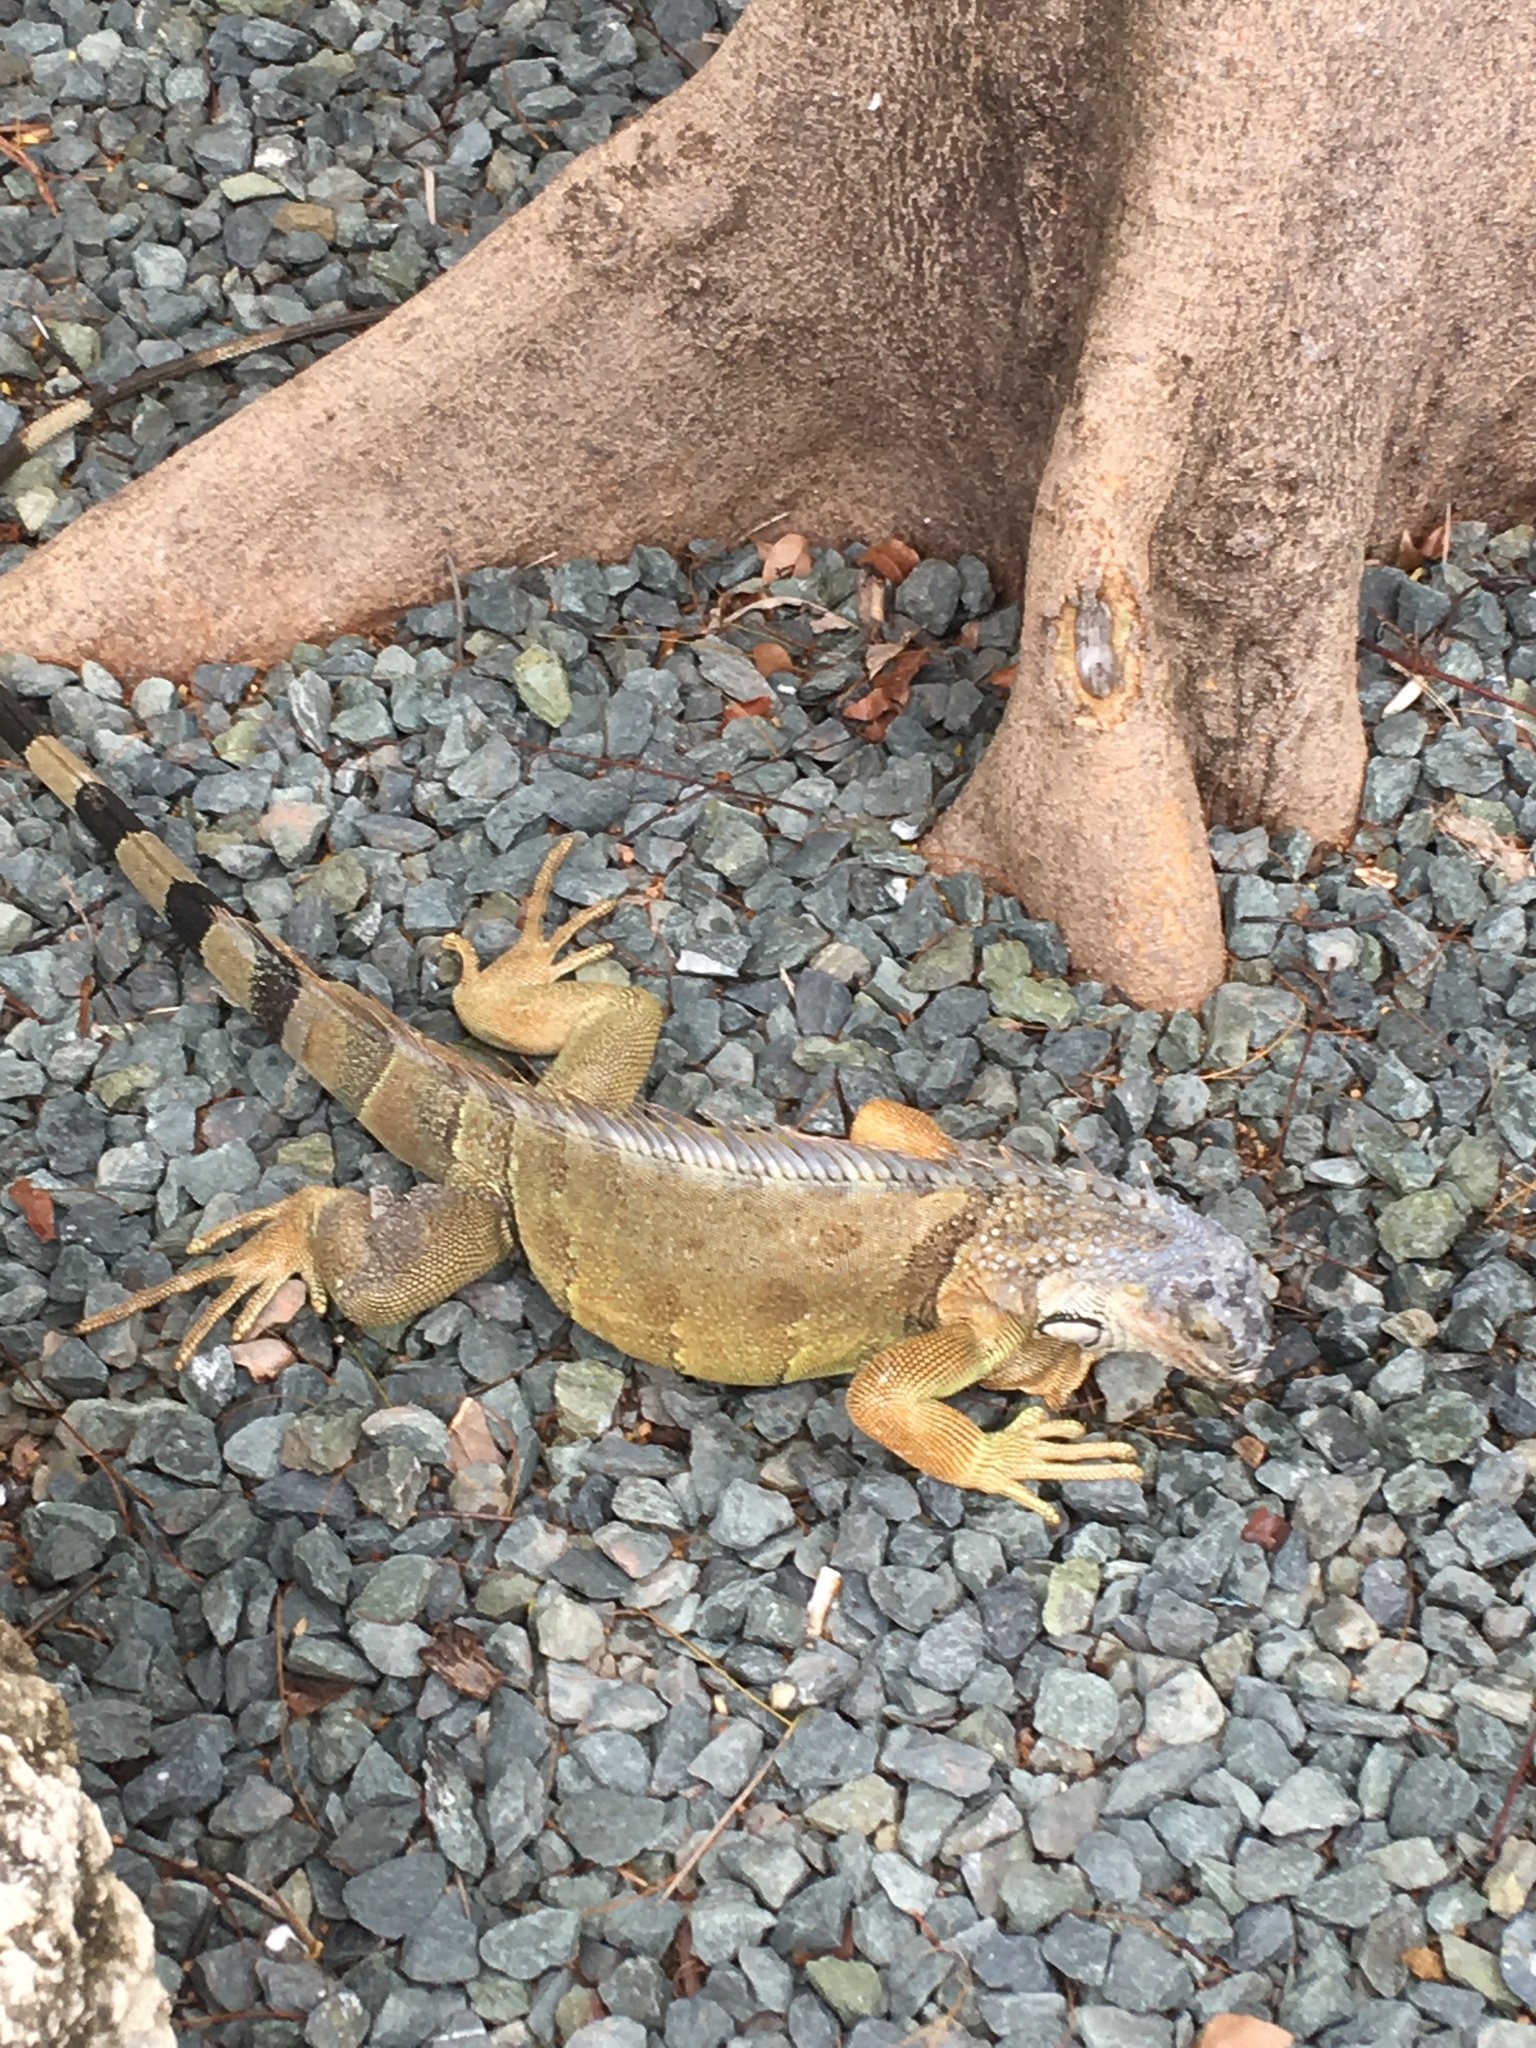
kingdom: Animalia
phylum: Chordata
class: Squamata
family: Iguanidae
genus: Iguana
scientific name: Iguana iguana
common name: Green iguana
